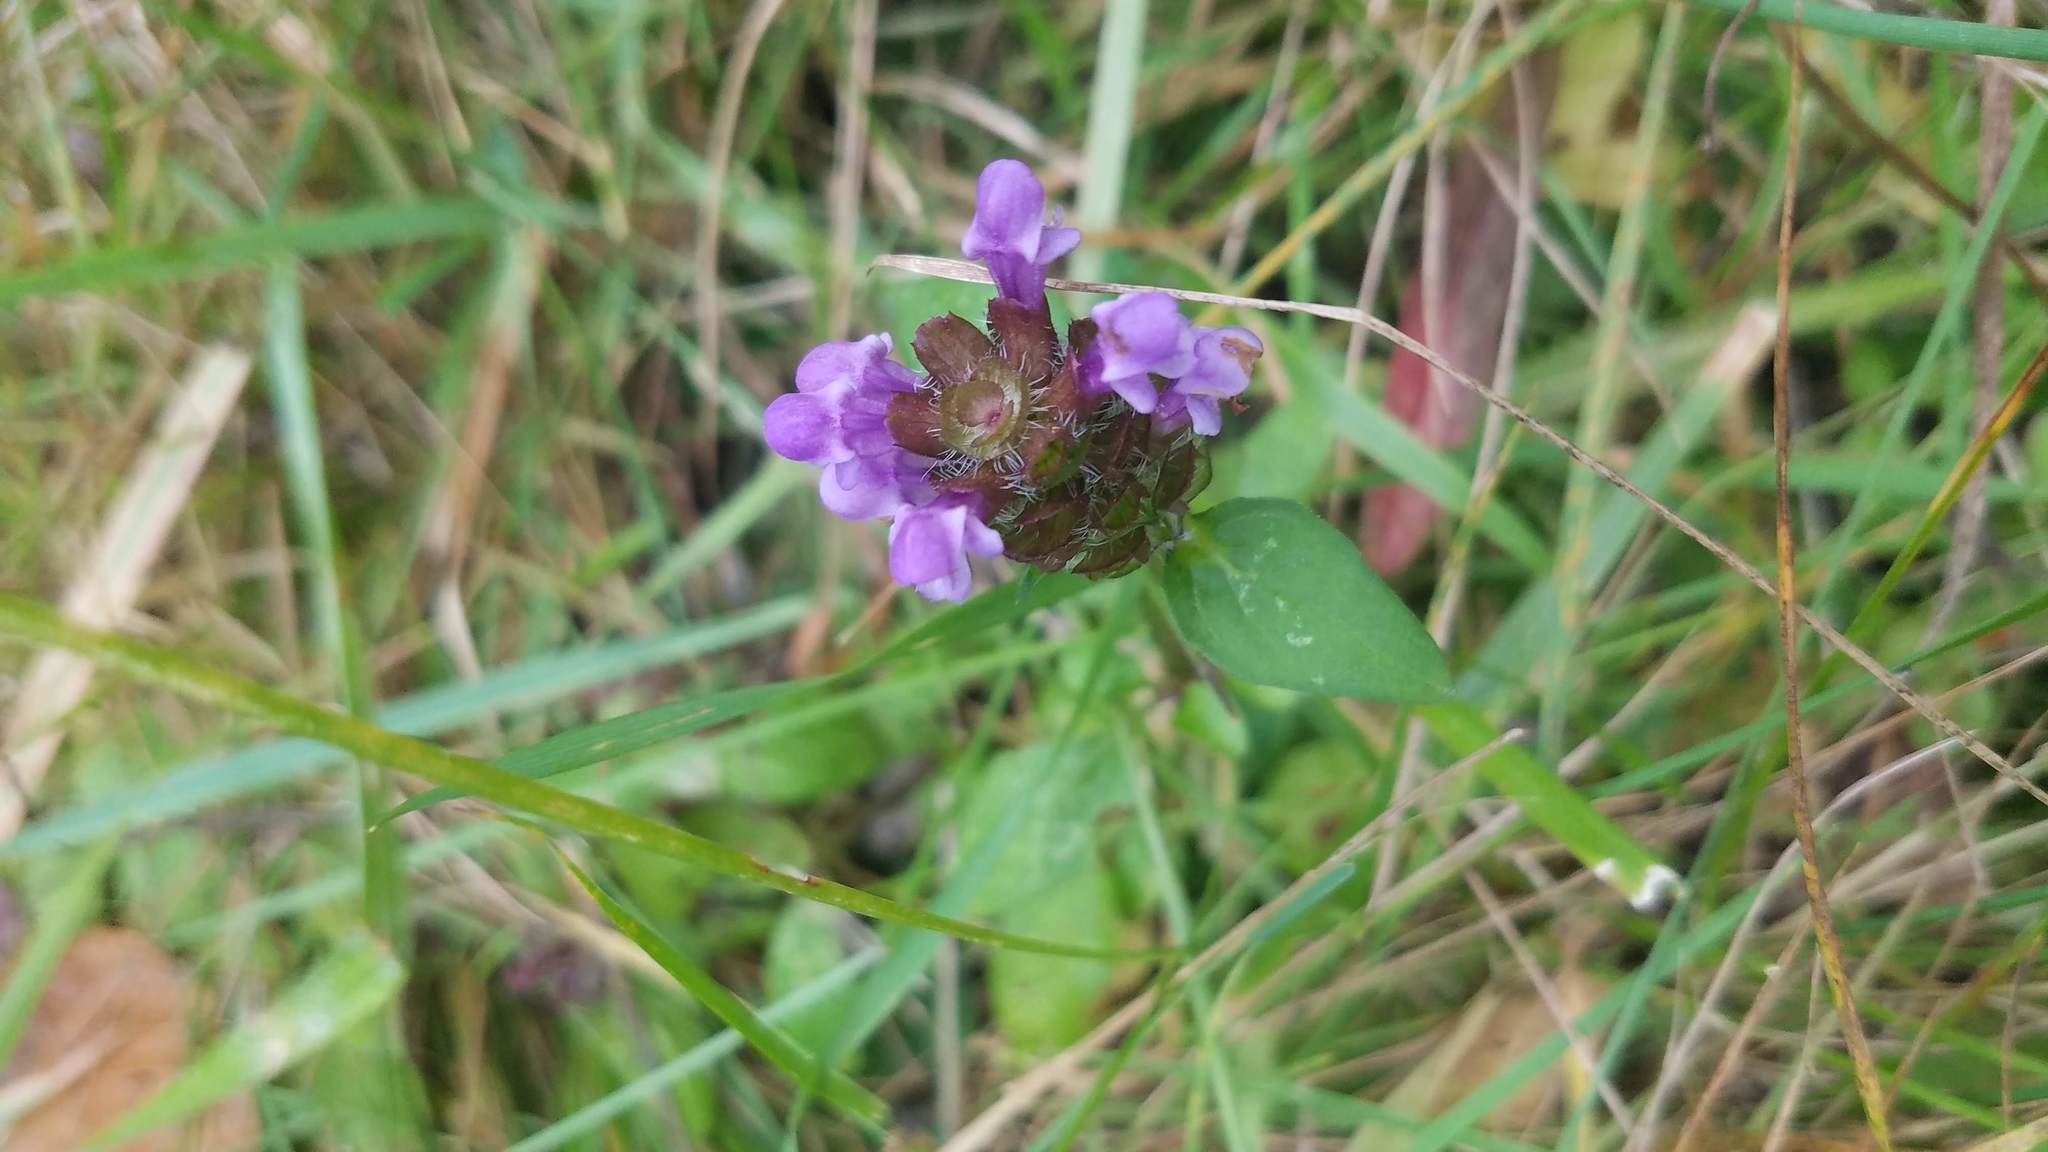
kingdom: Plantae
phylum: Tracheophyta
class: Magnoliopsida
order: Lamiales
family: Lamiaceae
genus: Prunella
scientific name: Prunella vulgaris
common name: Heal-all
